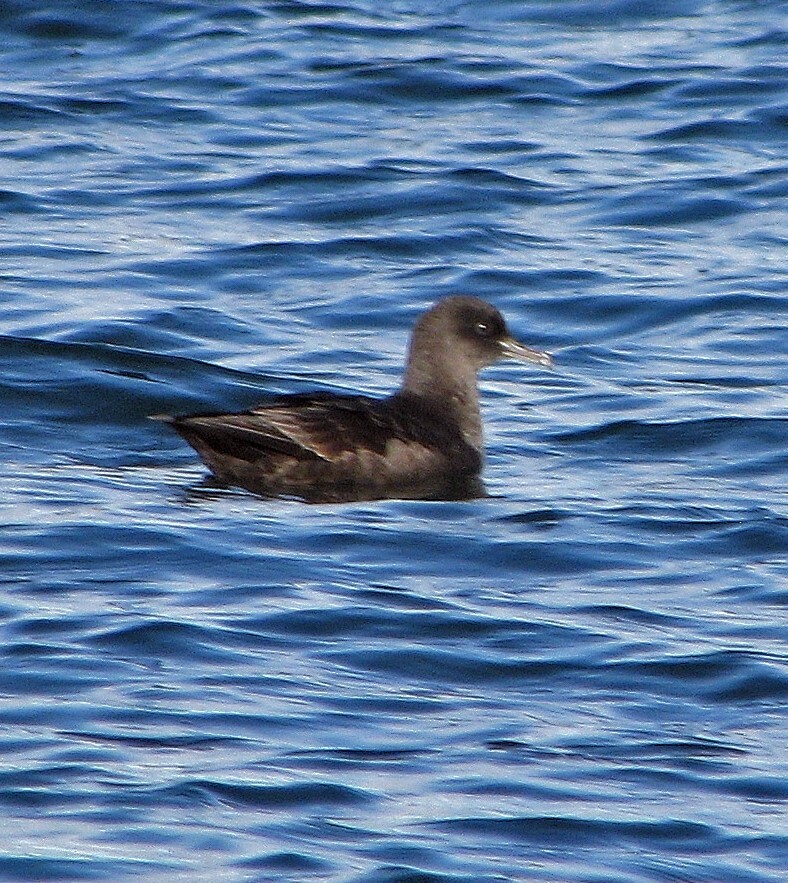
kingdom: Animalia
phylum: Chordata
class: Aves
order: Procellariiformes
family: Procellariidae
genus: Puffinus
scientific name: Puffinus griseus
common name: Sooty shearwater
